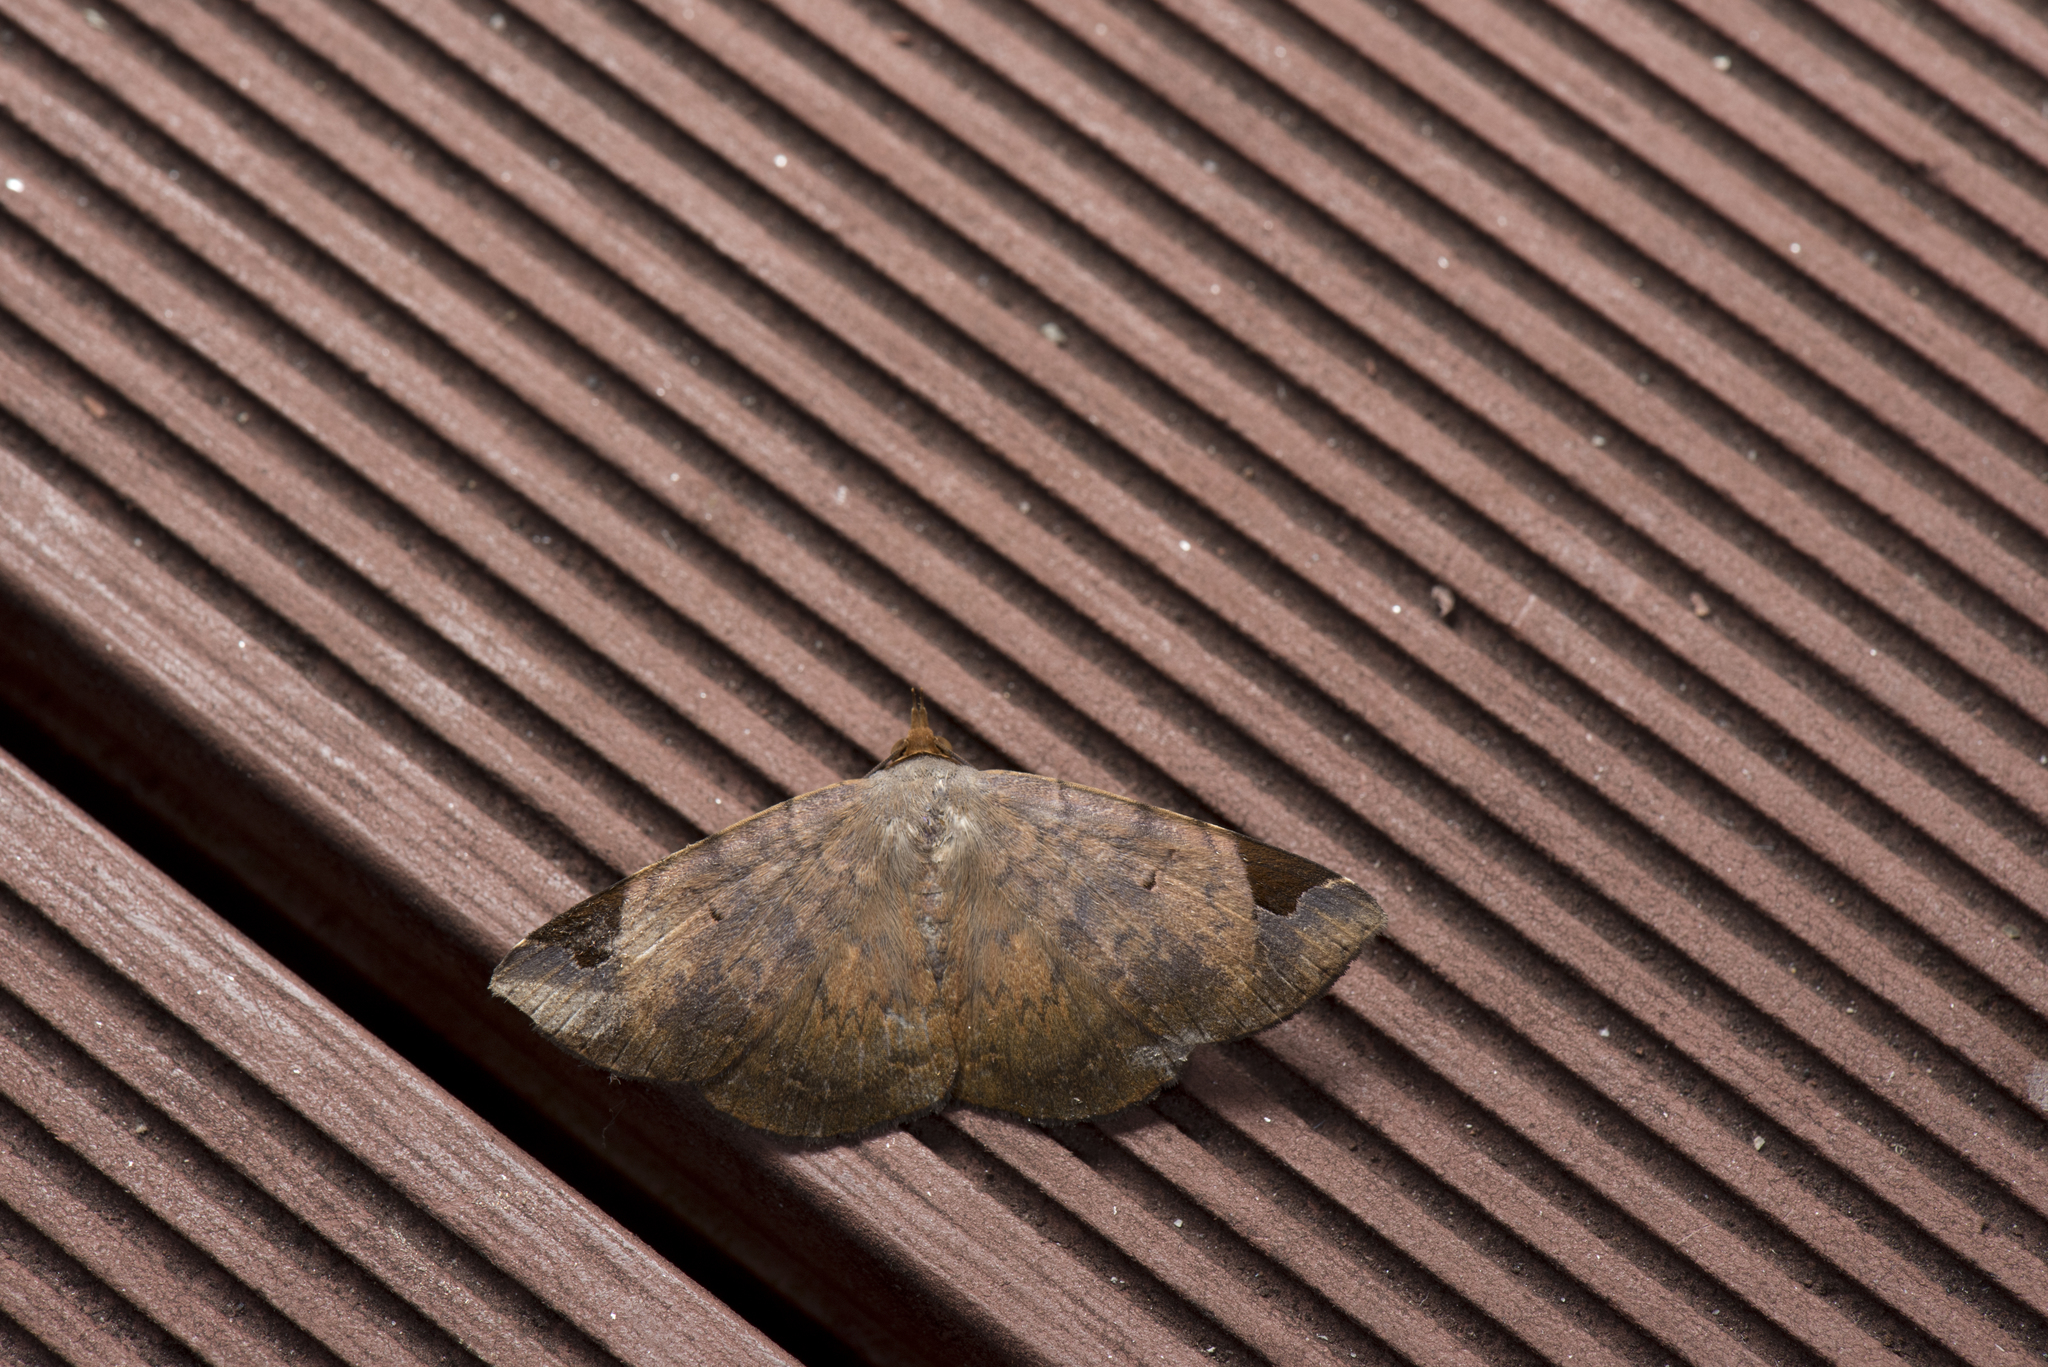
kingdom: Animalia
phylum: Arthropoda
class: Insecta
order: Lepidoptera
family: Erebidae
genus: Mecodina
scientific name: Mecodina praecipua
